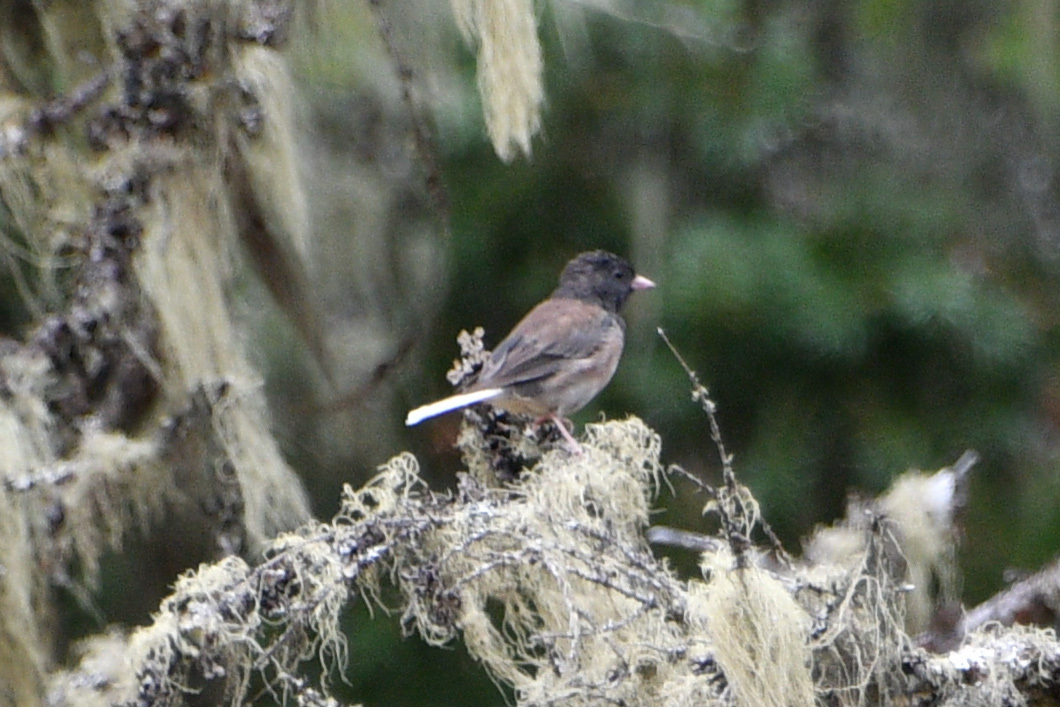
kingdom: Animalia
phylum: Chordata
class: Aves
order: Passeriformes
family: Passerellidae
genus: Junco
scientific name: Junco hyemalis
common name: Dark-eyed junco
